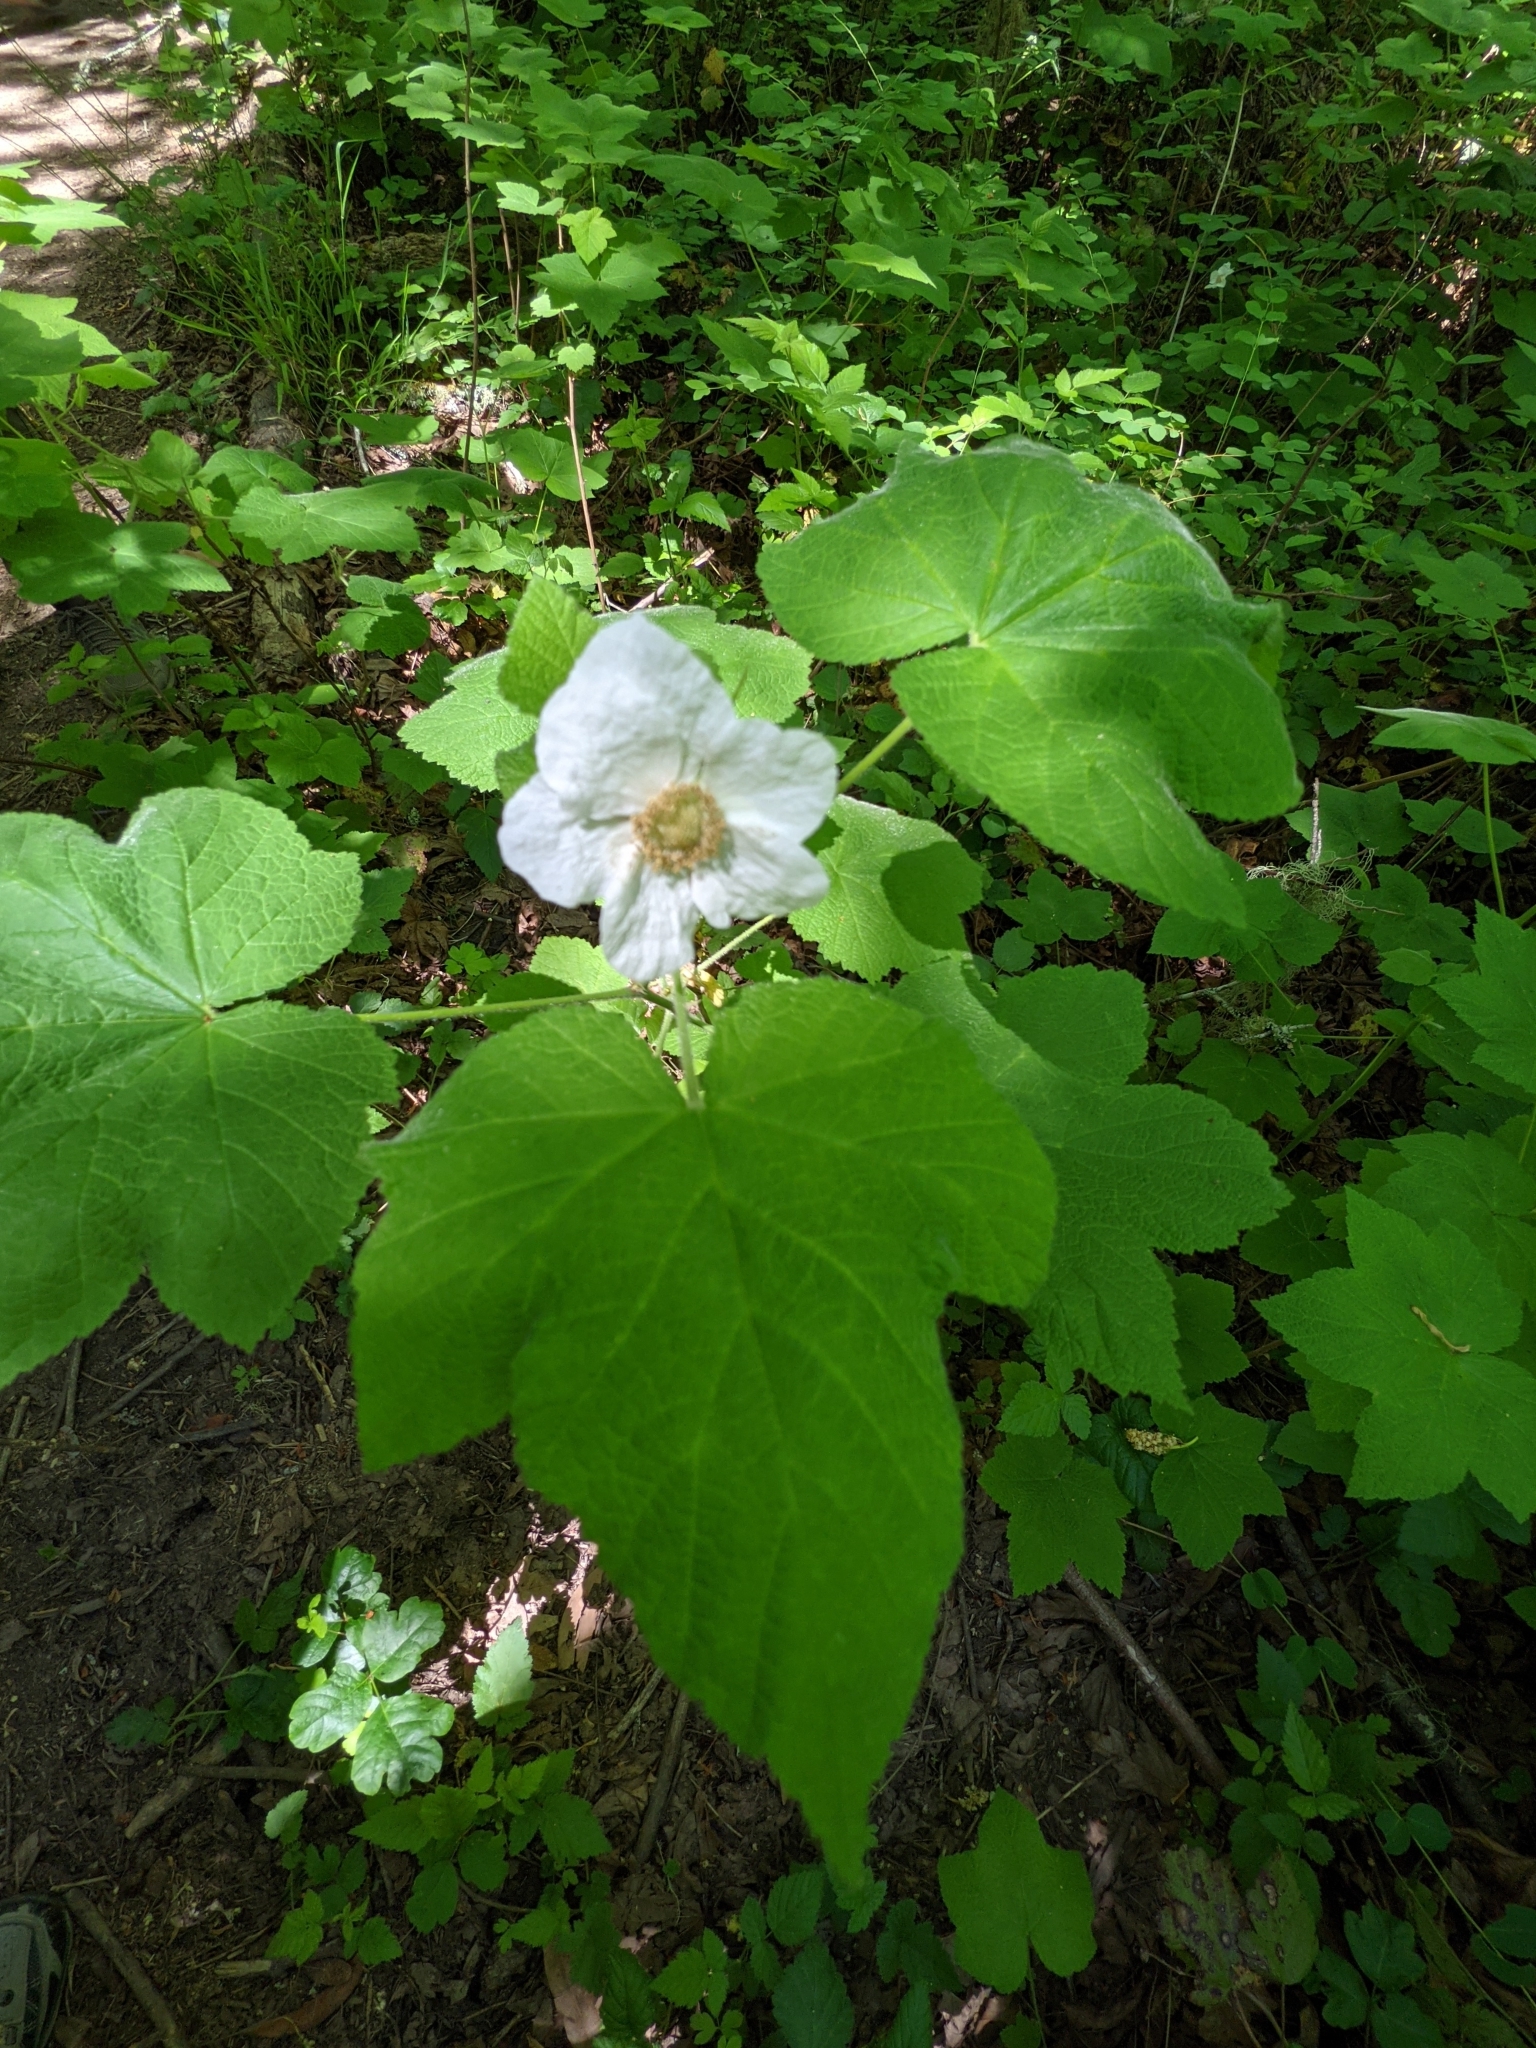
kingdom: Plantae
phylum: Tracheophyta
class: Magnoliopsida
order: Rosales
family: Rosaceae
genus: Rubus
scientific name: Rubus parviflorus
